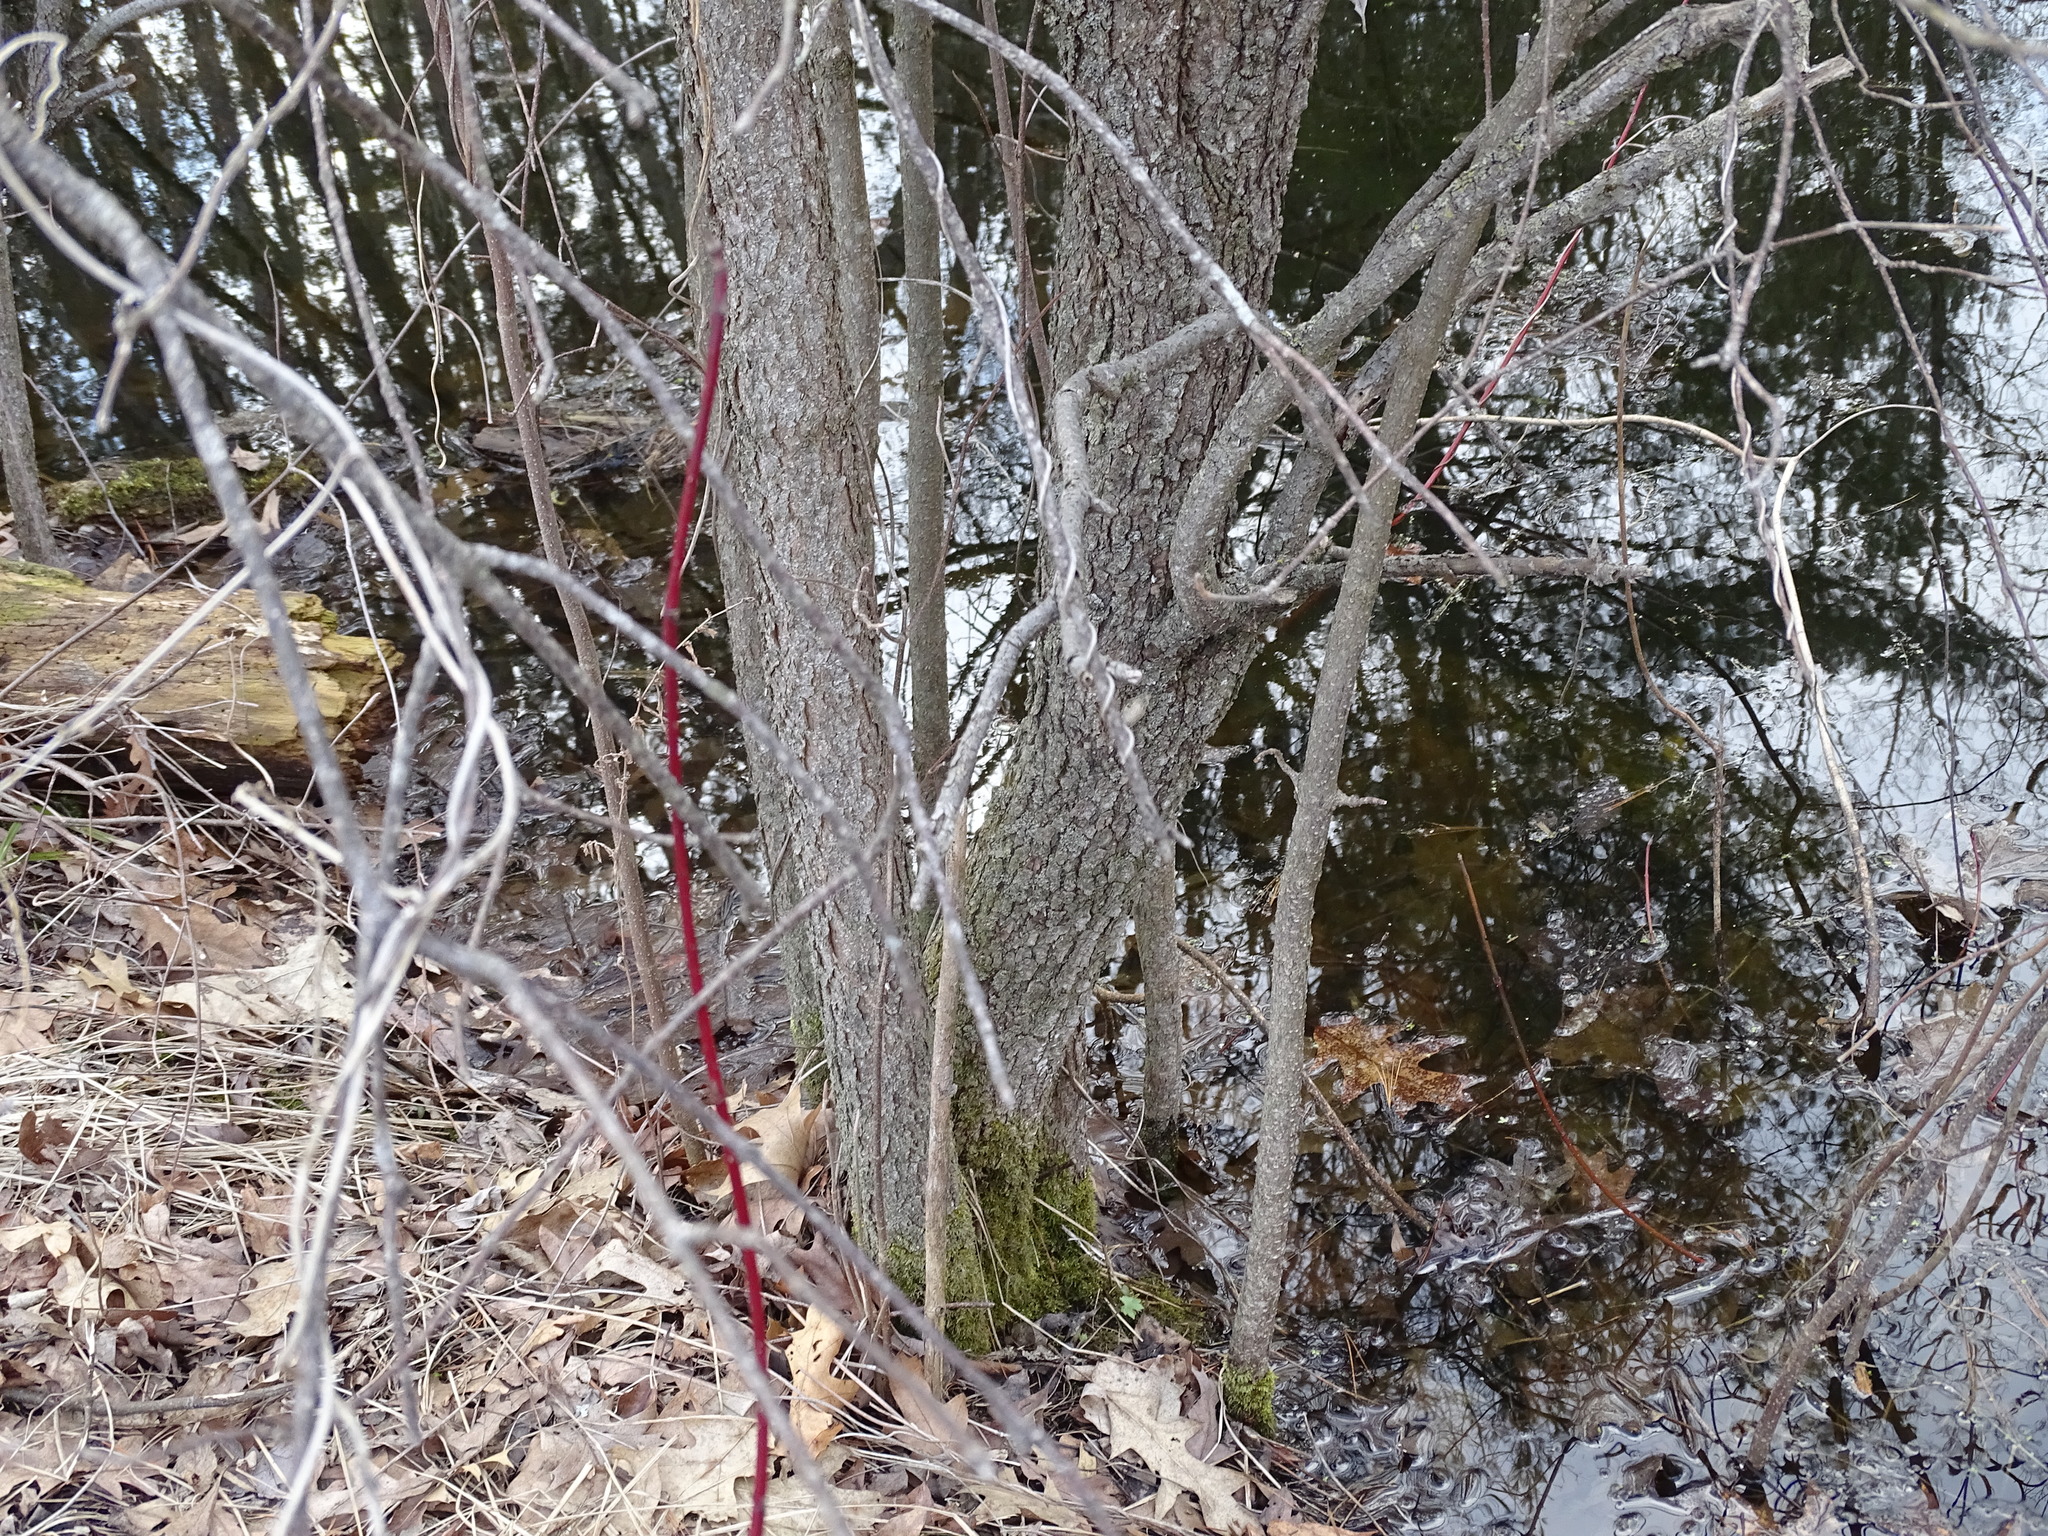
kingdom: Plantae
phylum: Tracheophyta
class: Magnoliopsida
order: Dipsacales
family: Viburnaceae
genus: Viburnum
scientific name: Viburnum lentago
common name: Black haw
